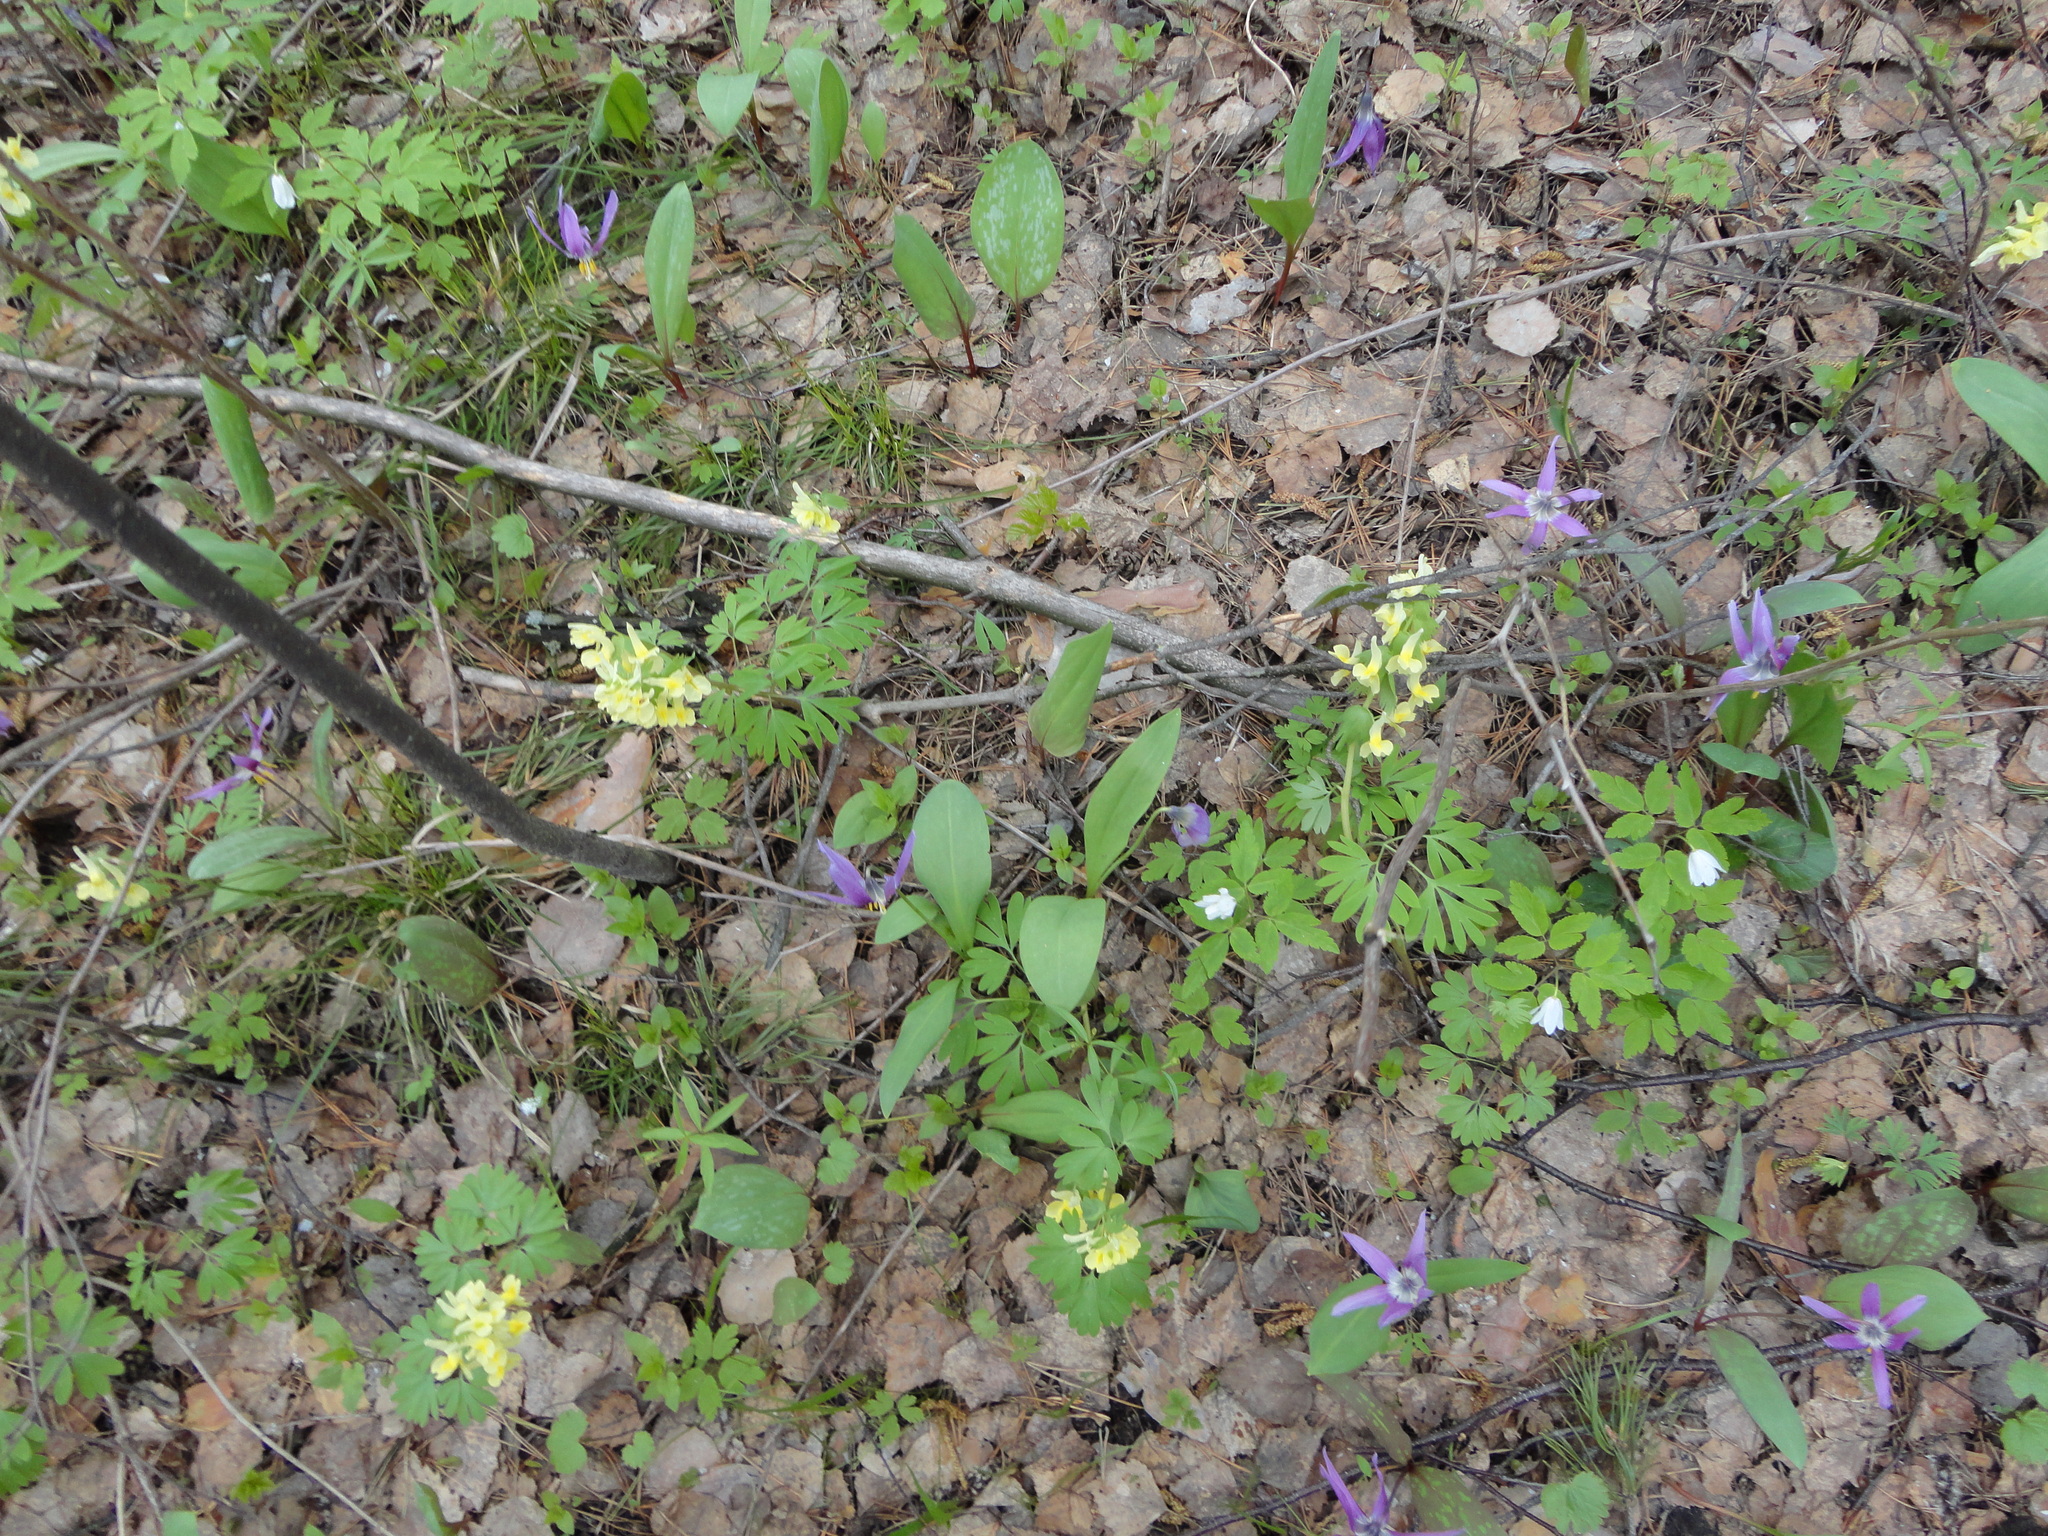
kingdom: Plantae
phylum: Tracheophyta
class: Magnoliopsida
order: Ranunculales
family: Papaveraceae
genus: Corydalis
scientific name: Corydalis bracteata
